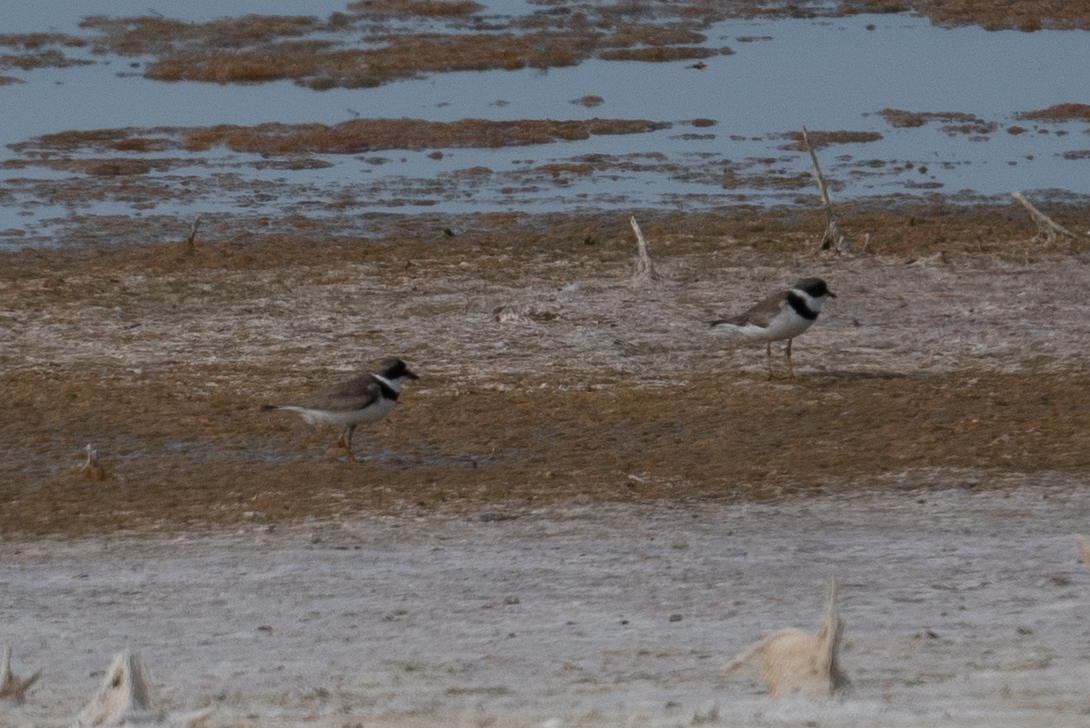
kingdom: Animalia
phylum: Chordata
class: Aves
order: Charadriiformes
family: Charadriidae
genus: Charadrius
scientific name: Charadrius semipalmatus
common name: Semipalmated plover
